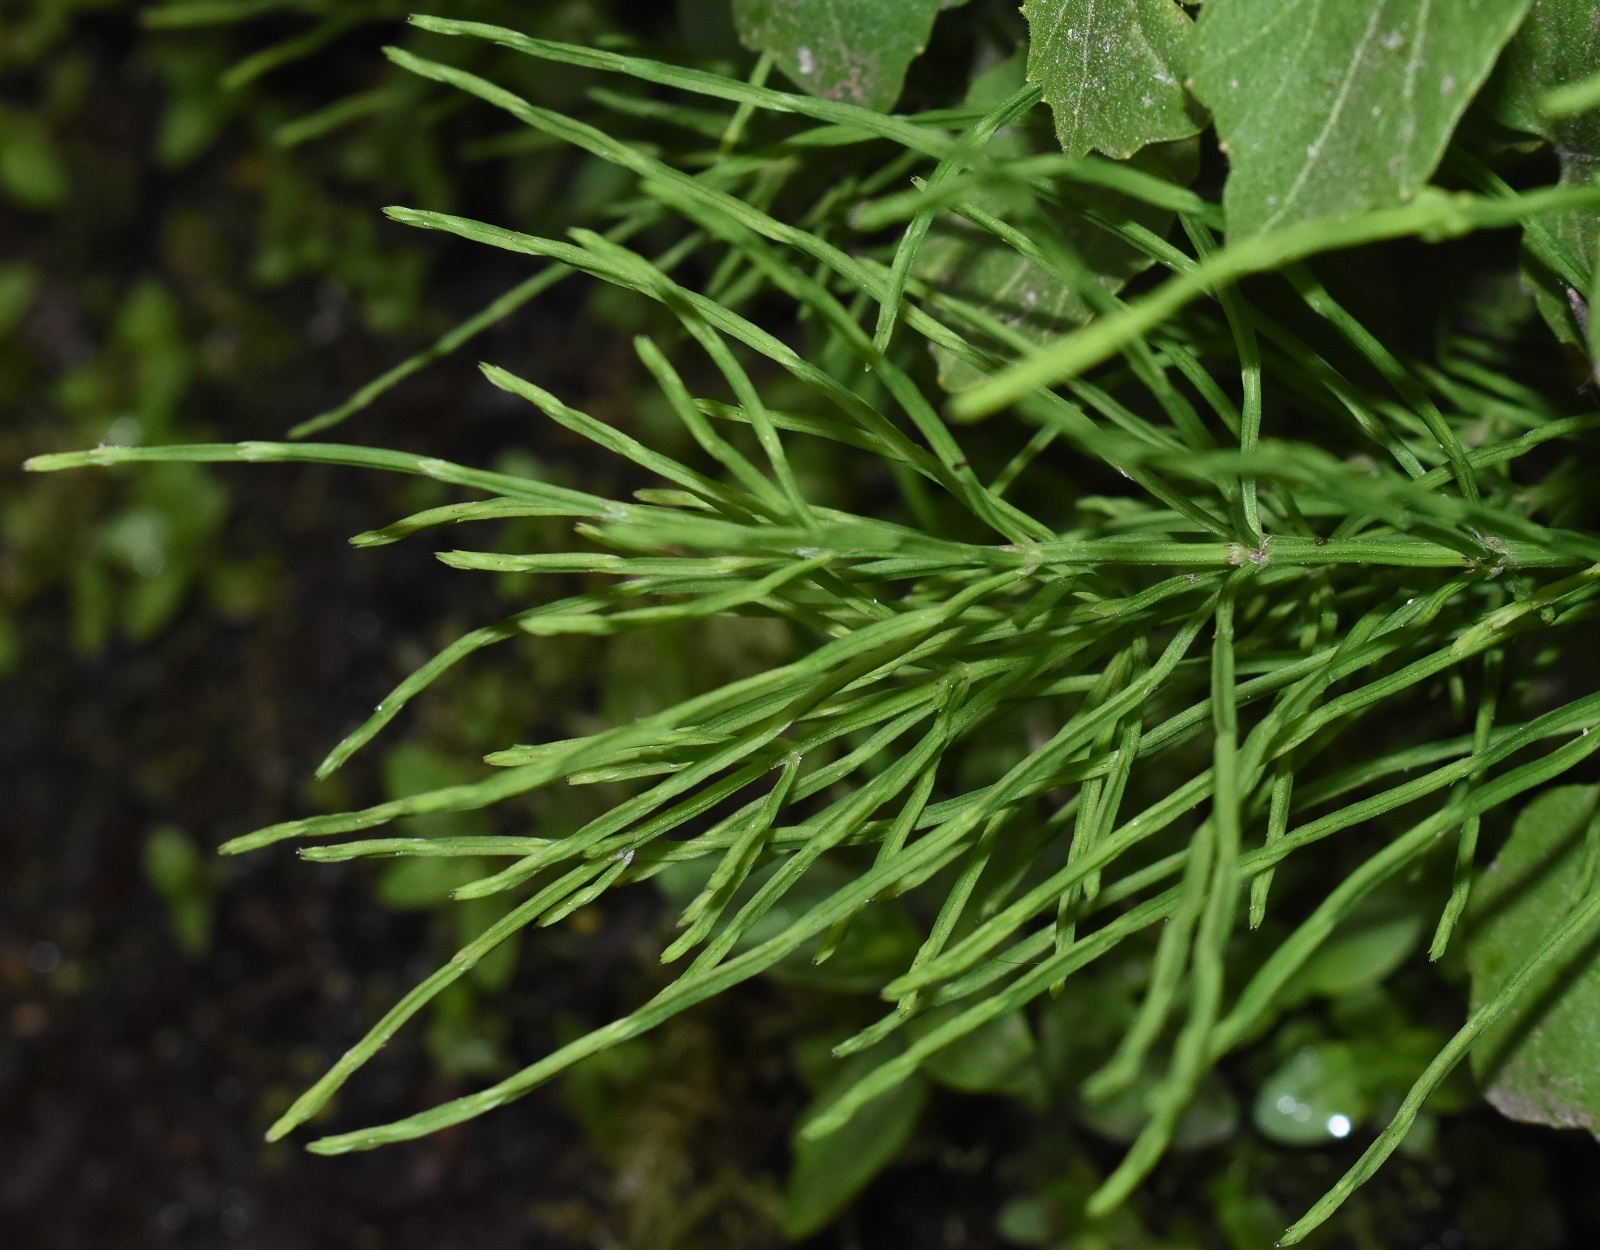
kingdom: Plantae
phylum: Tracheophyta
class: Polypodiopsida
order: Equisetales
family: Equisetaceae
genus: Equisetum
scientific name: Equisetum arvense
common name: Field horsetail
